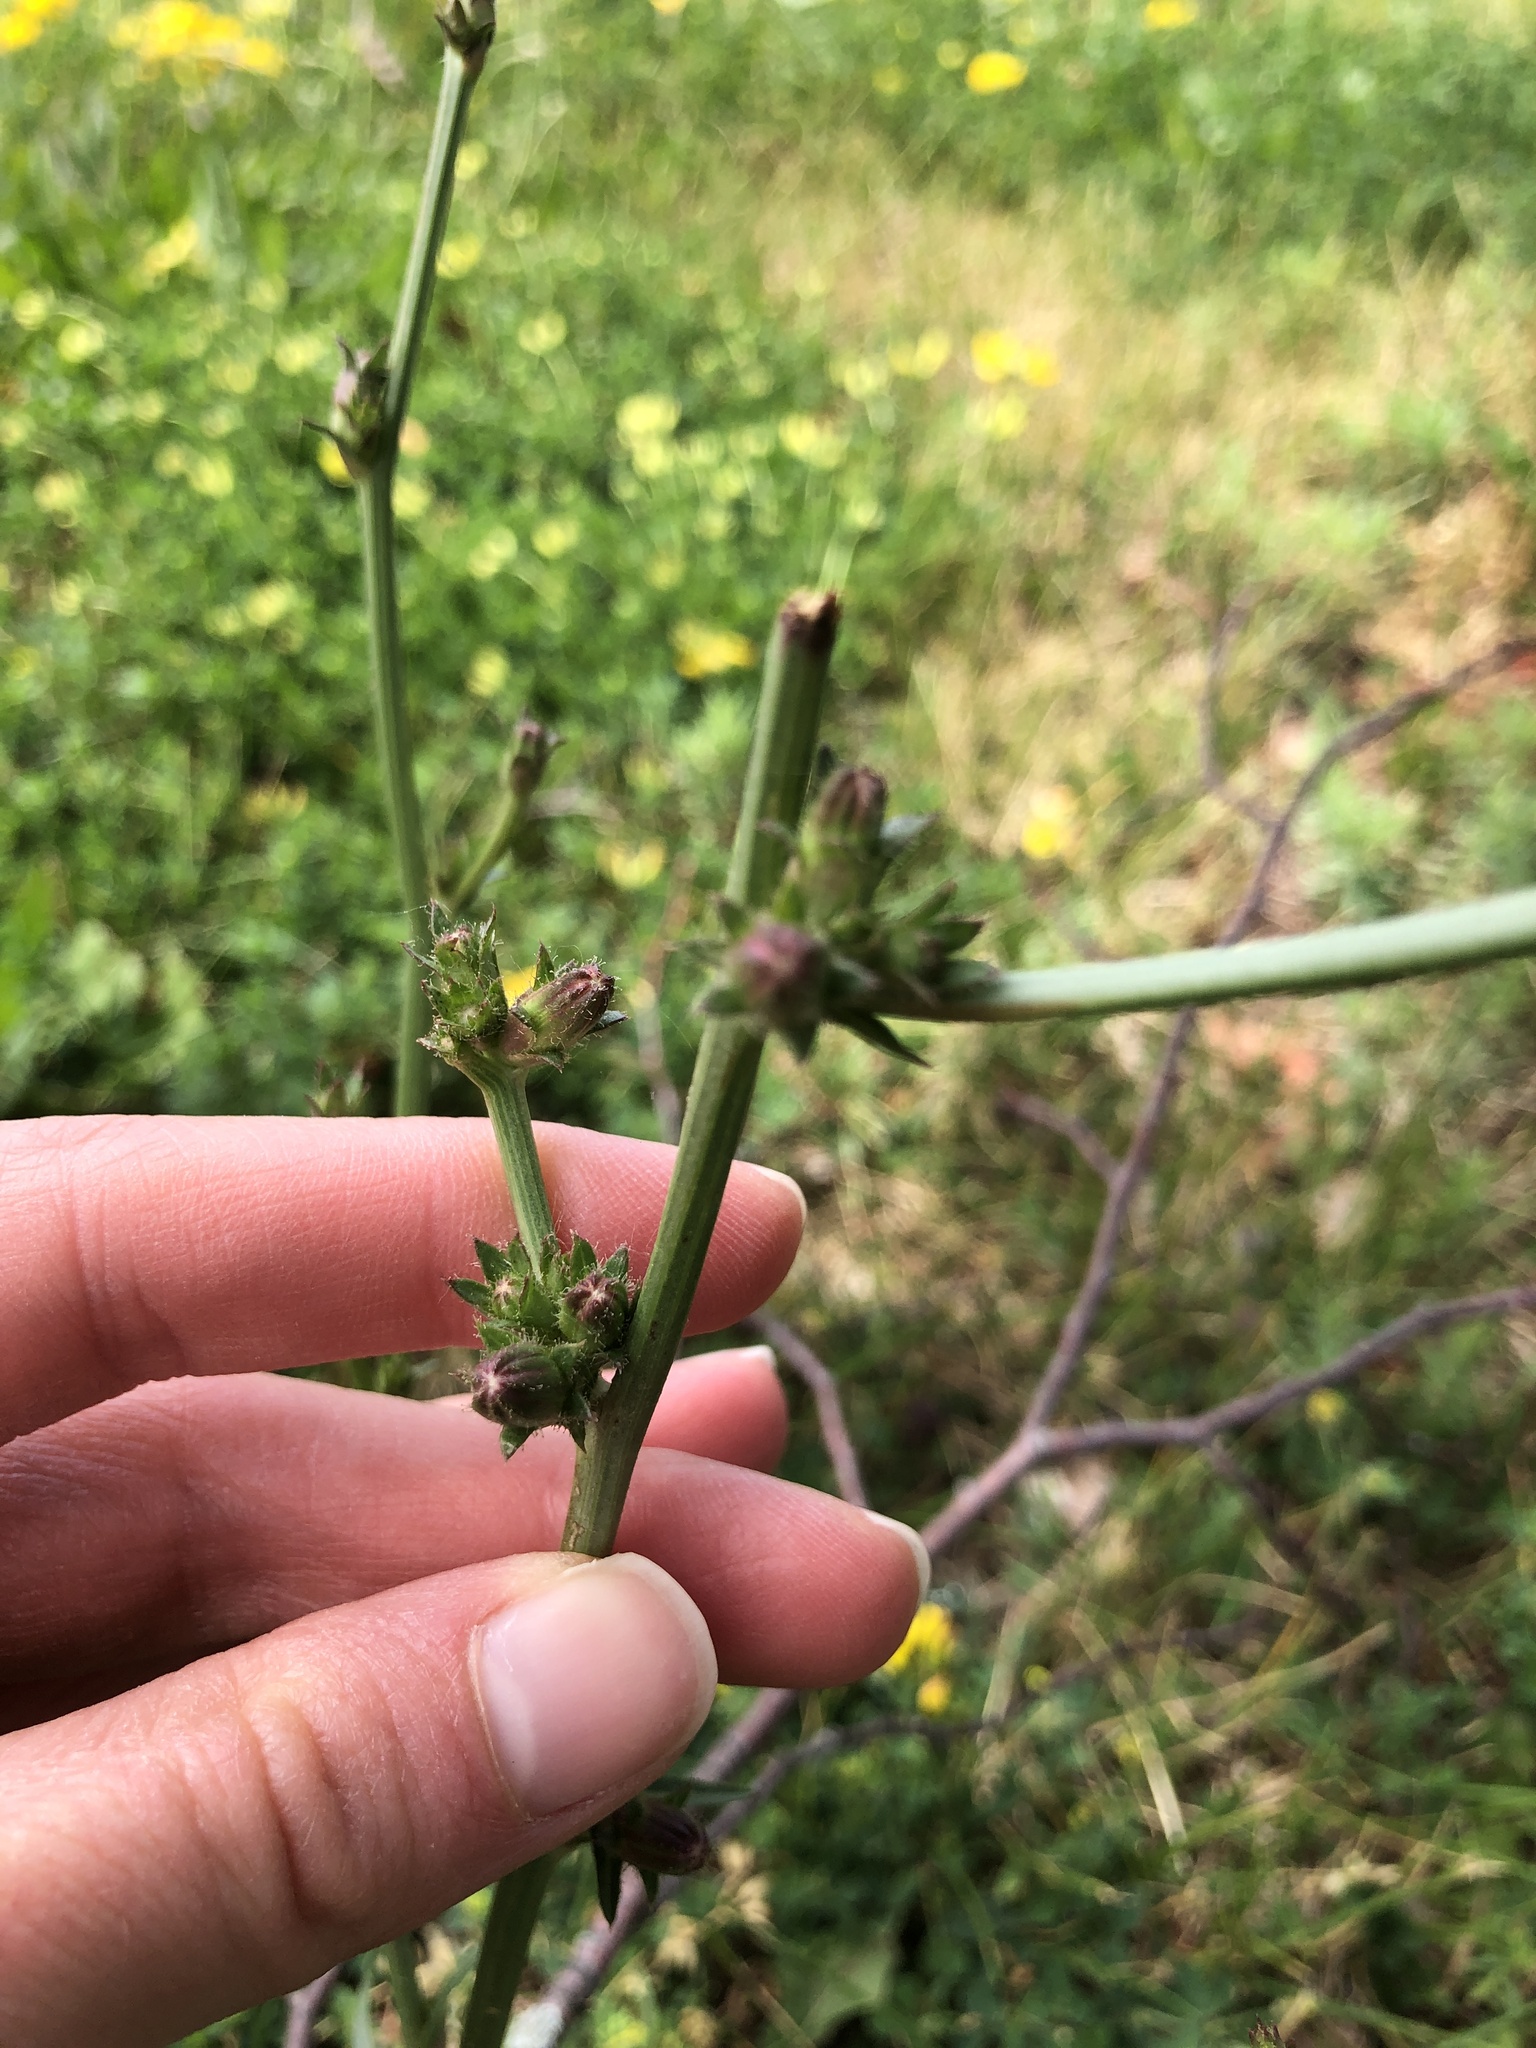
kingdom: Plantae
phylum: Tracheophyta
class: Magnoliopsida
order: Asterales
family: Asteraceae
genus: Cichorium
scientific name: Cichorium intybus
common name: Chicory
